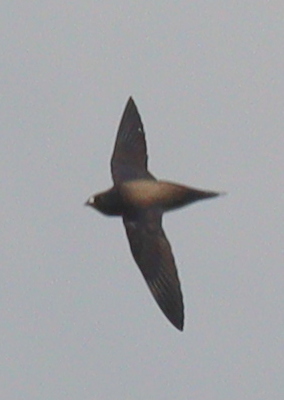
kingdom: Animalia
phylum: Chordata
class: Aves
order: Apodiformes
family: Apodidae
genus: Hirundapus
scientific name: Hirundapus giganteus
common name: Brown-backed needletail
